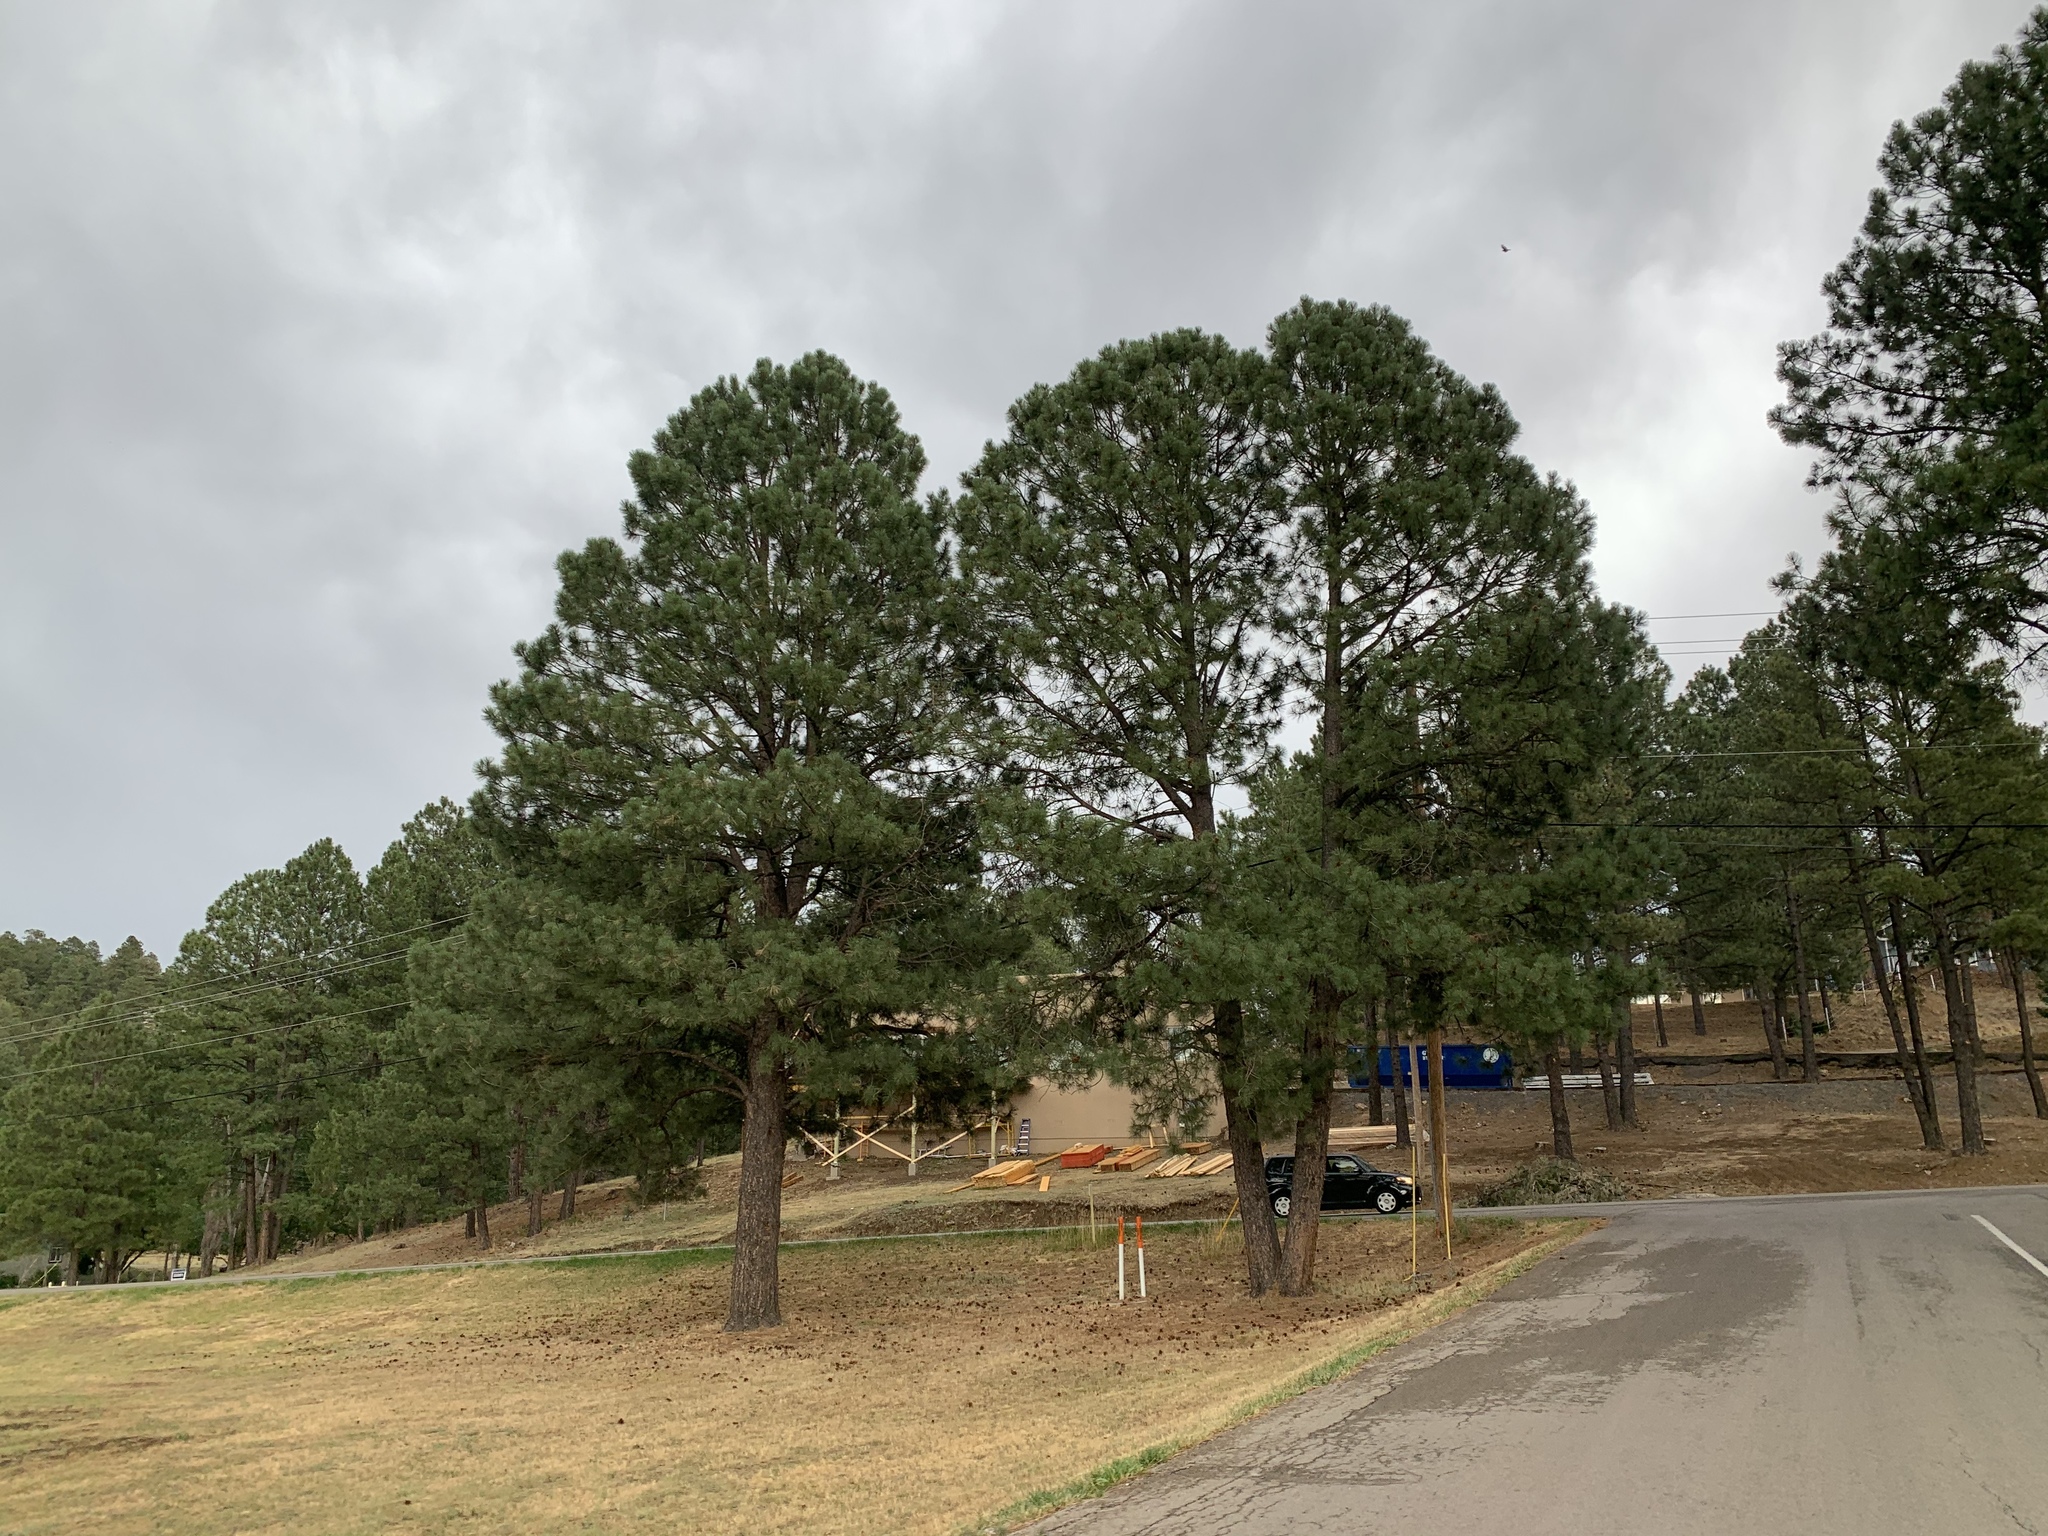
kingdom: Plantae
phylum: Tracheophyta
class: Pinopsida
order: Pinales
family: Pinaceae
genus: Pinus
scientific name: Pinus ponderosa
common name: Western yellow-pine
